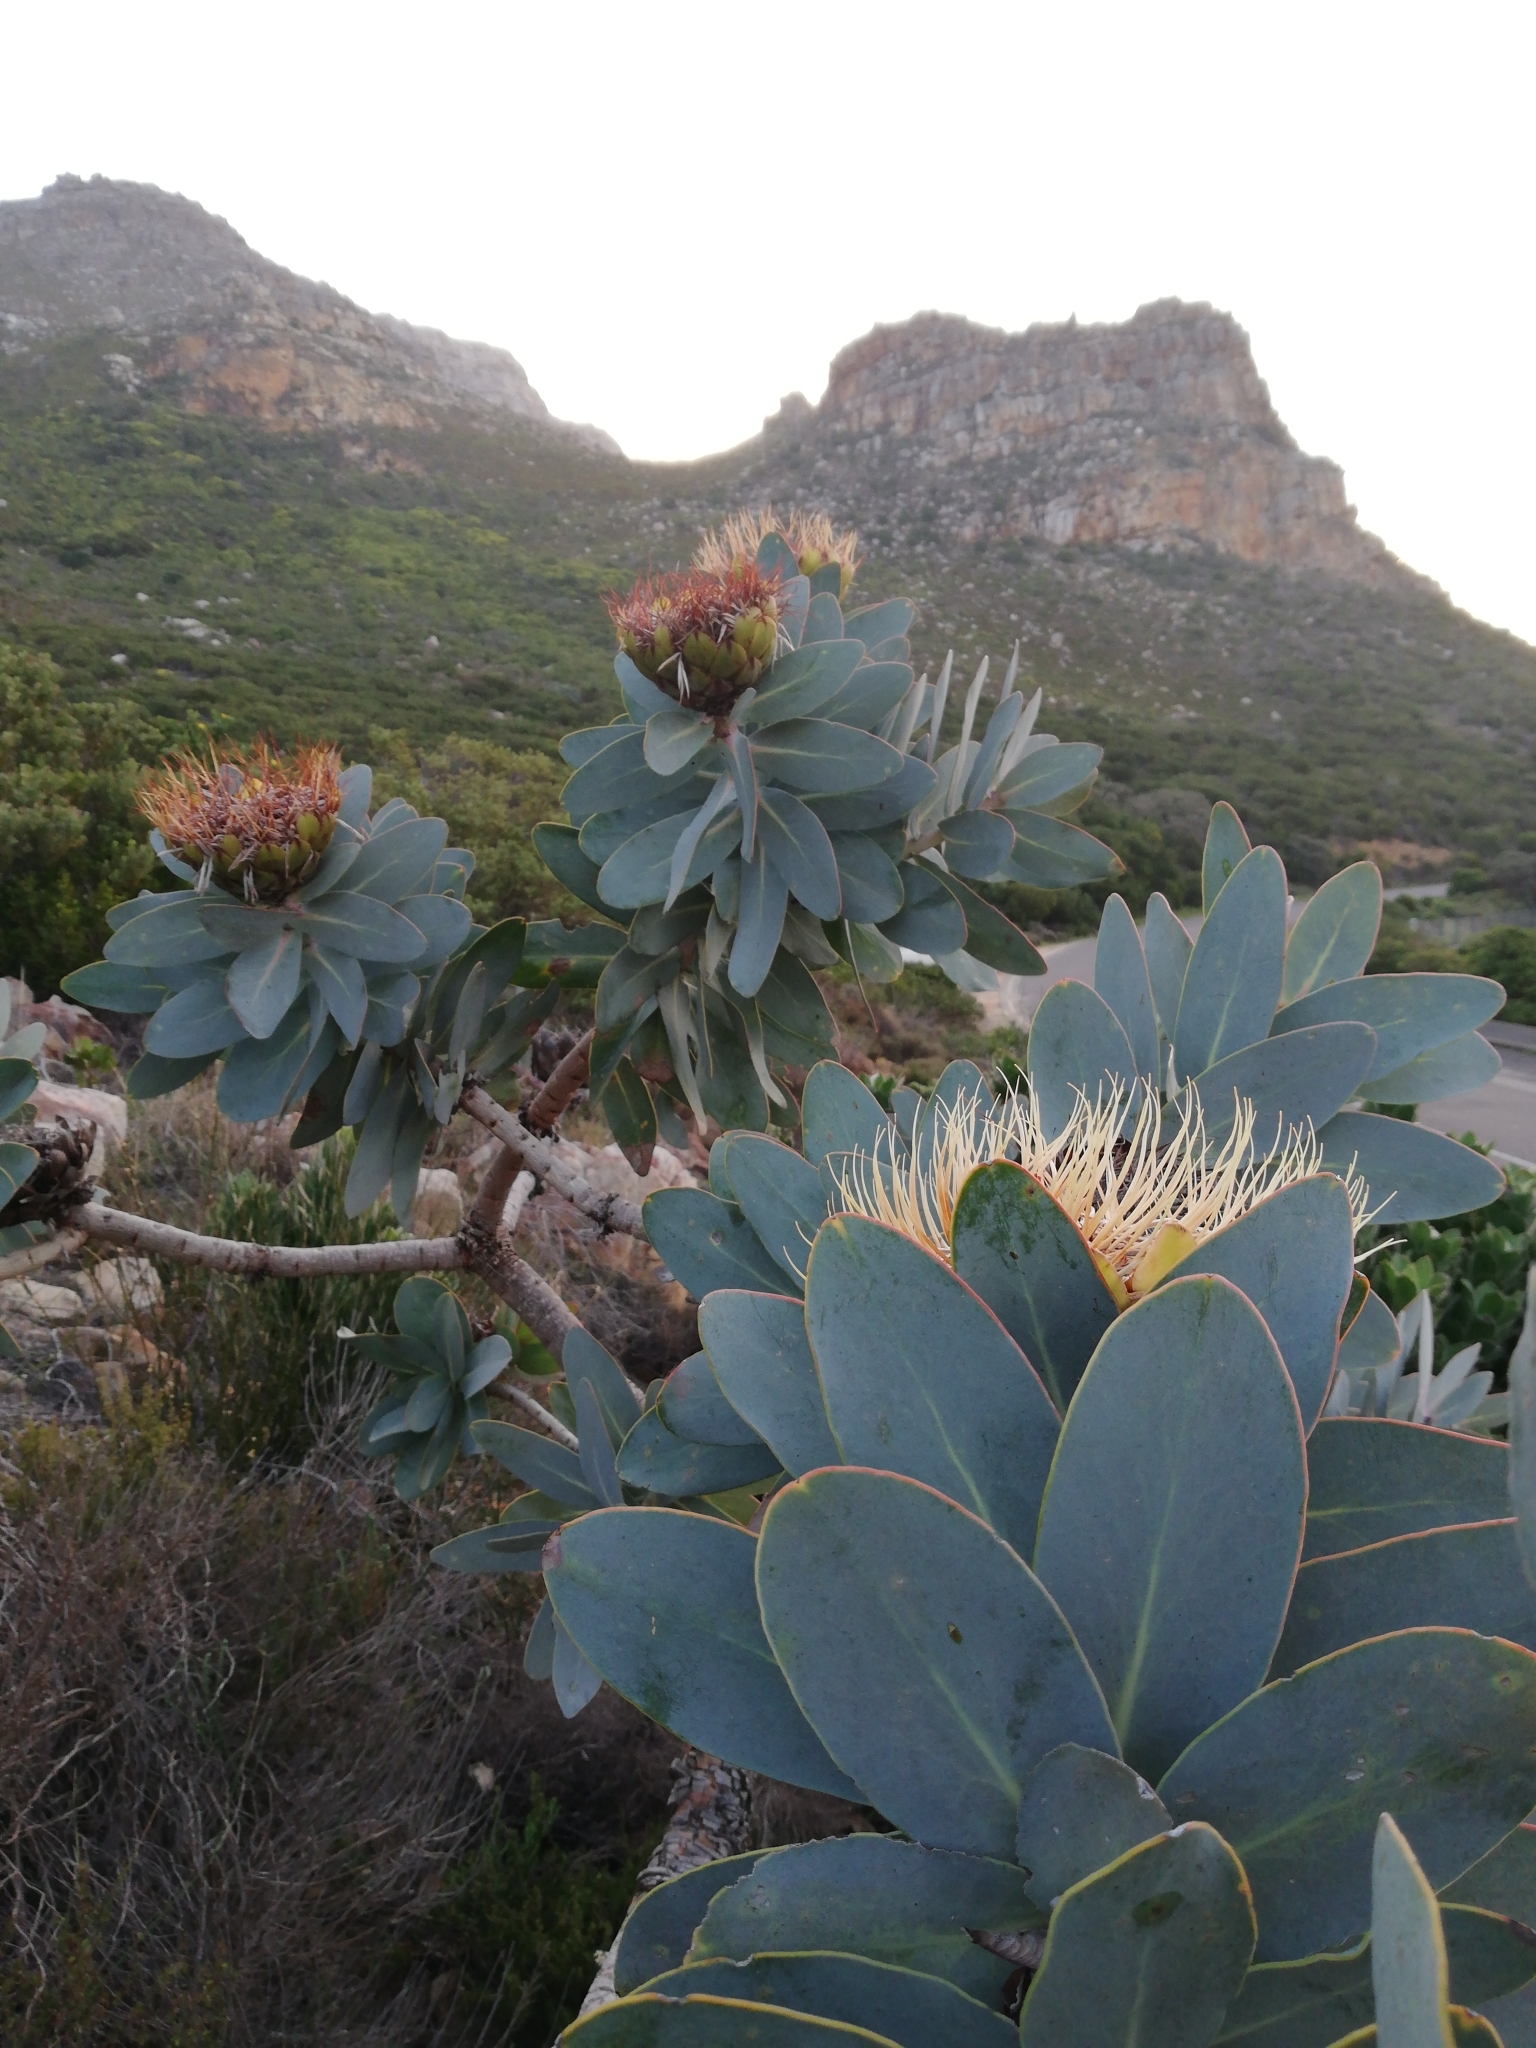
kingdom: Plantae
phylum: Tracheophyta
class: Magnoliopsida
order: Proteales
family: Proteaceae
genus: Protea
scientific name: Protea nitida
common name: Tree protea
